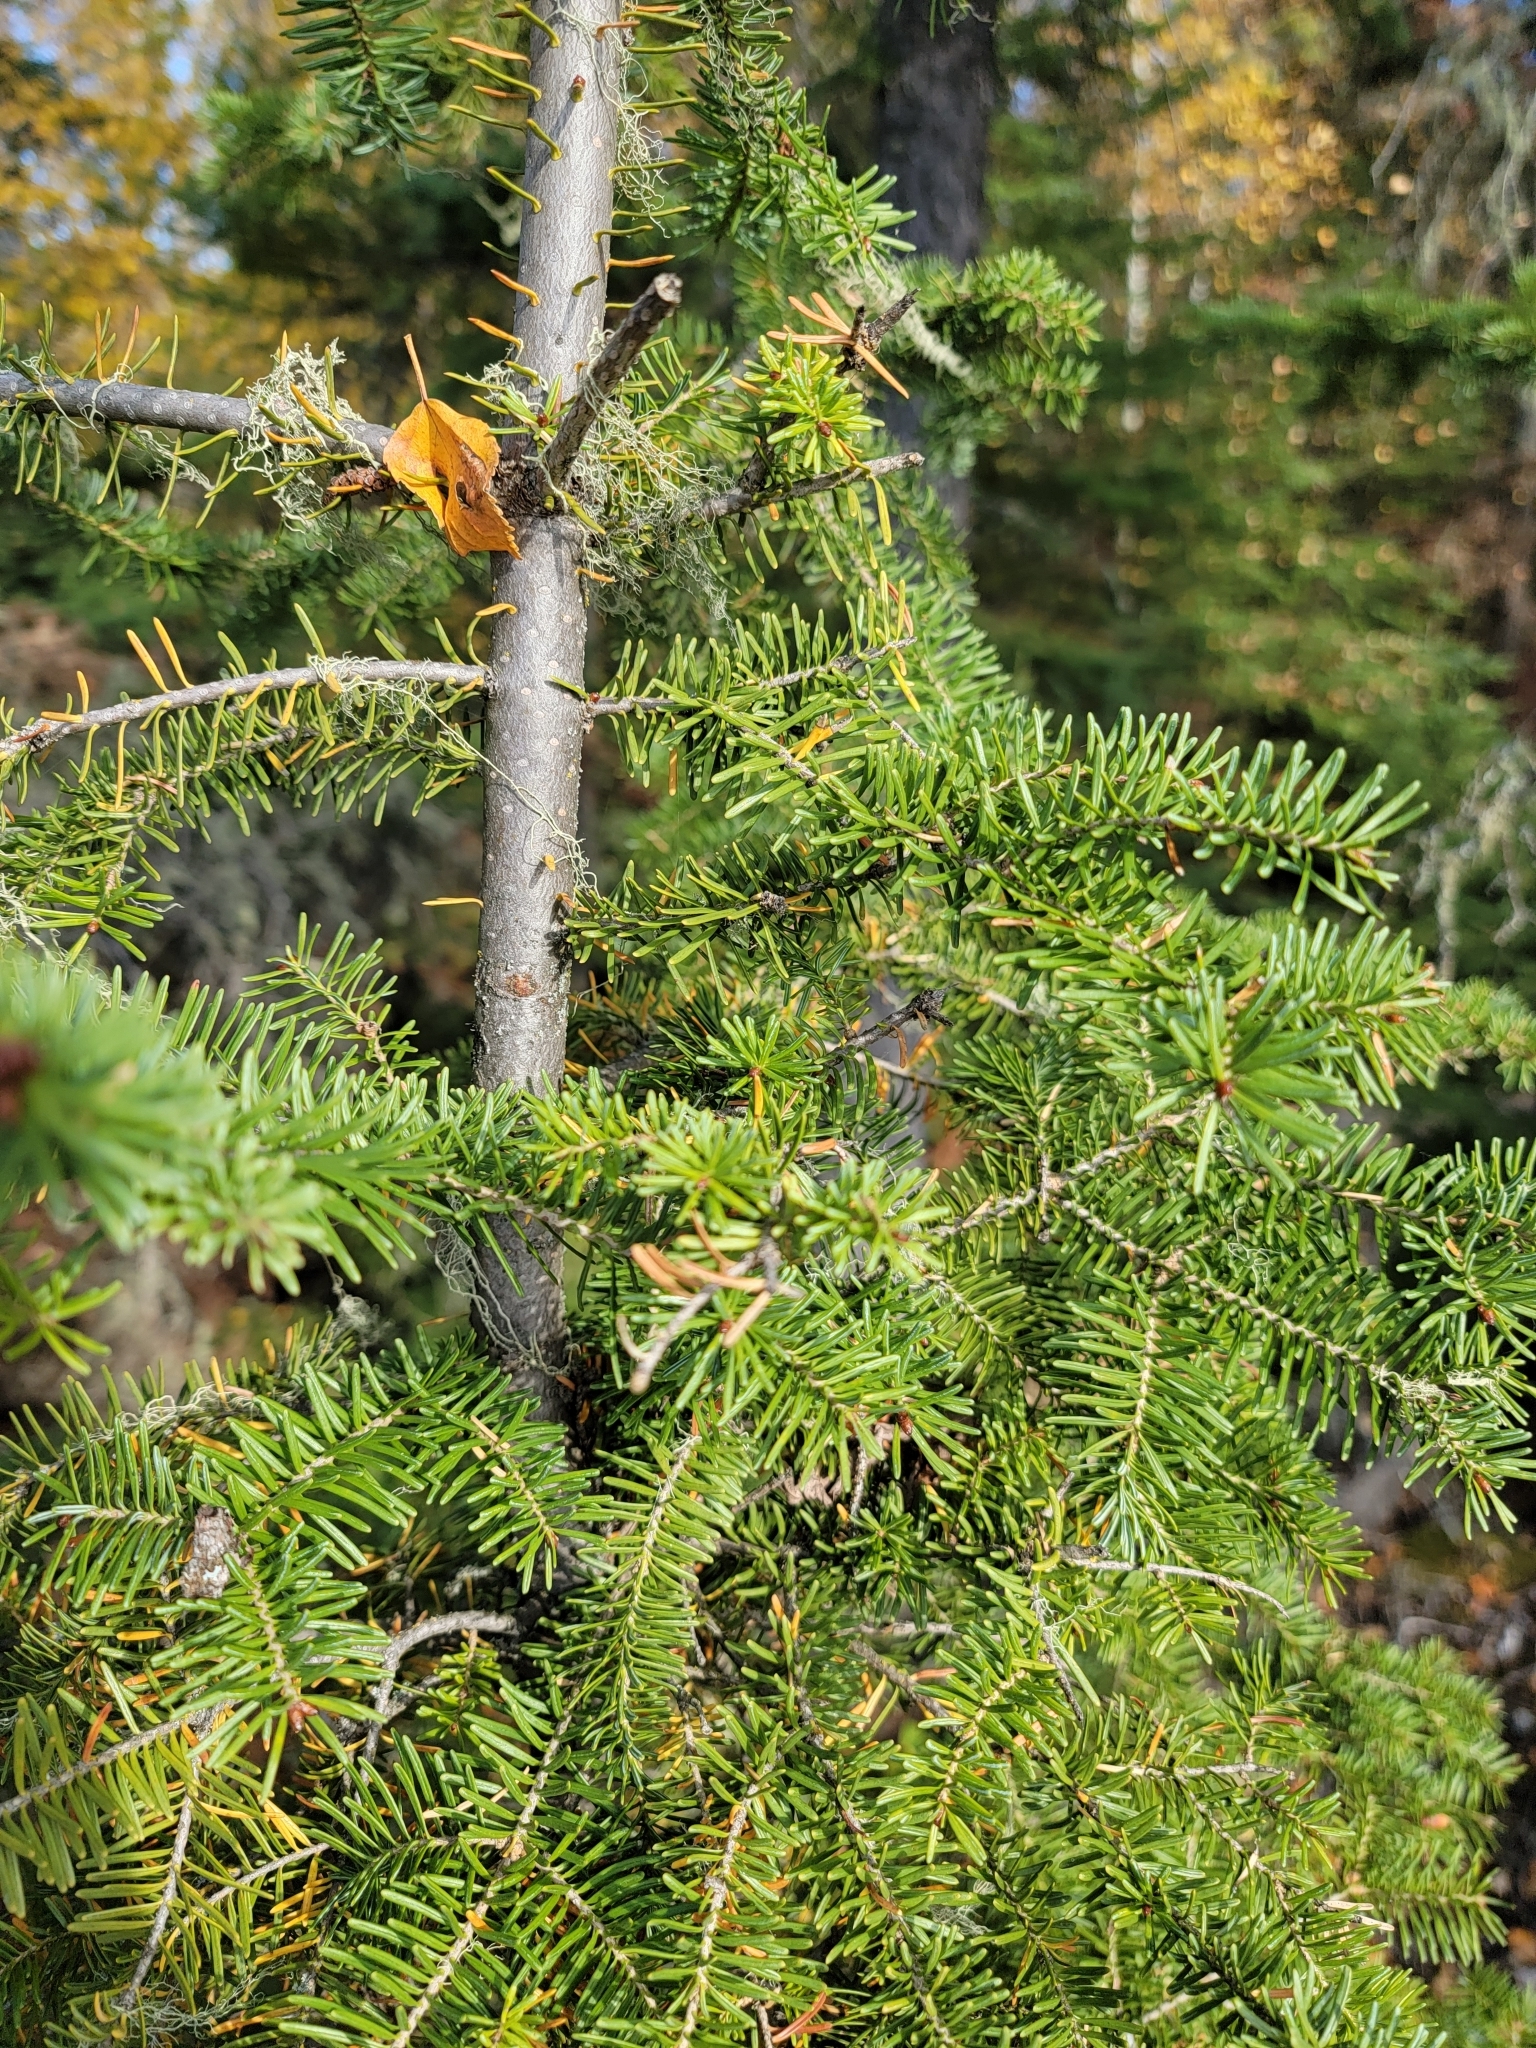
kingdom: Plantae
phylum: Tracheophyta
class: Pinopsida
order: Pinales
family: Pinaceae
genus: Abies
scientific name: Abies balsamea
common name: Balsam fir
